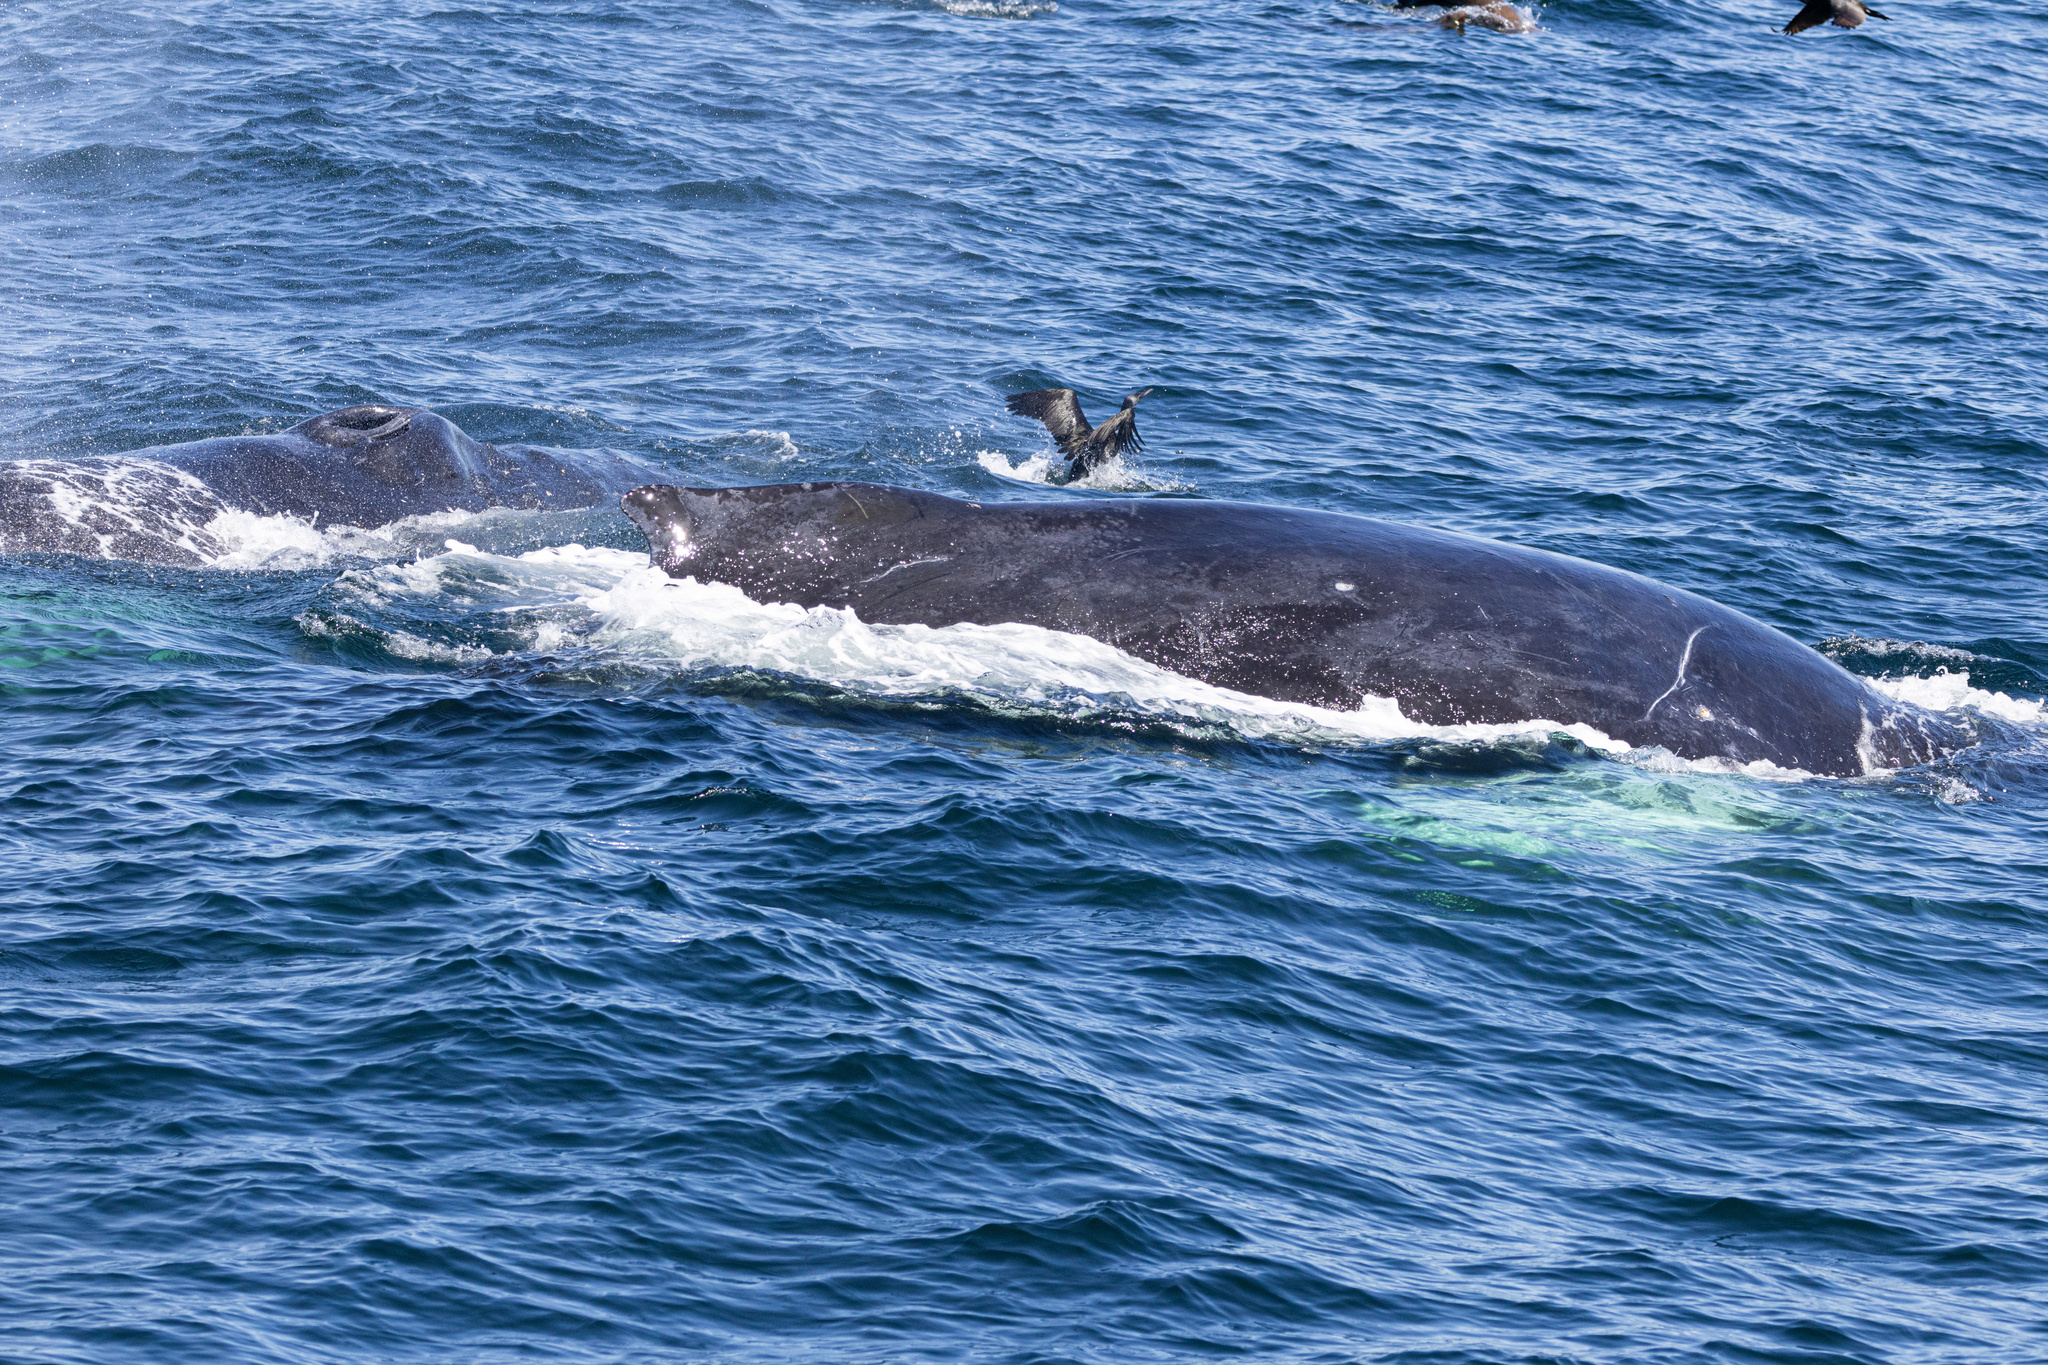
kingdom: Animalia
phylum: Chordata
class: Mammalia
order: Cetacea
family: Balaenopteridae
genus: Megaptera
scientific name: Megaptera novaeangliae
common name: Humpback whale
